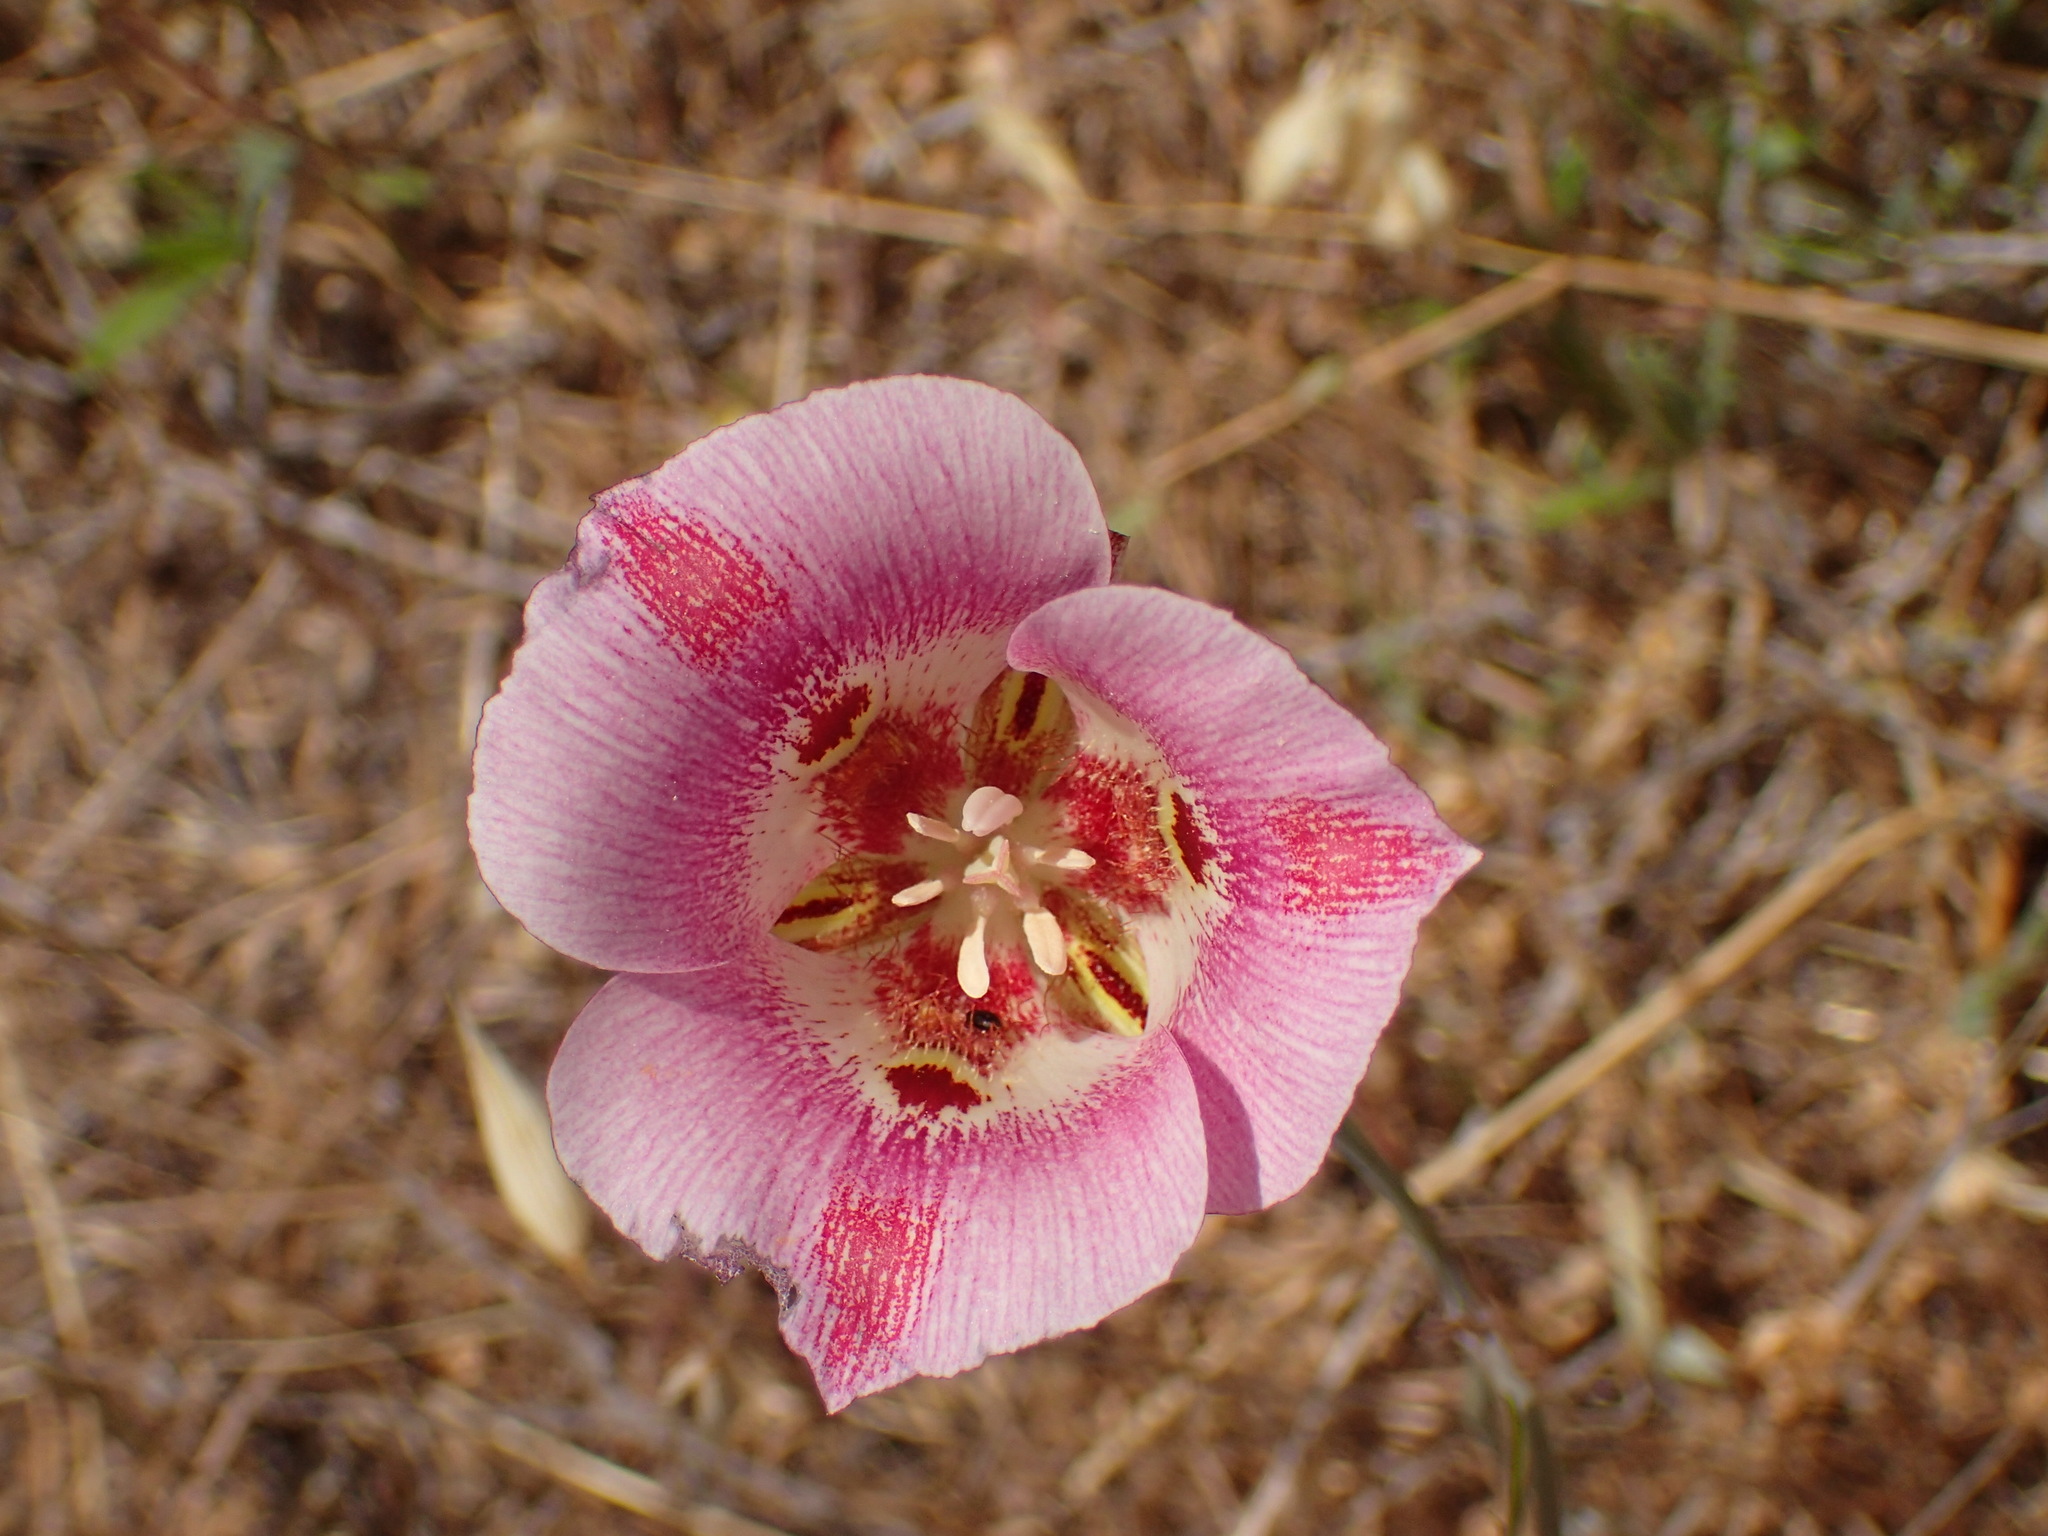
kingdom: Plantae
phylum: Tracheophyta
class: Liliopsida
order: Liliales
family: Liliaceae
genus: Calochortus
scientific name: Calochortus venustus
